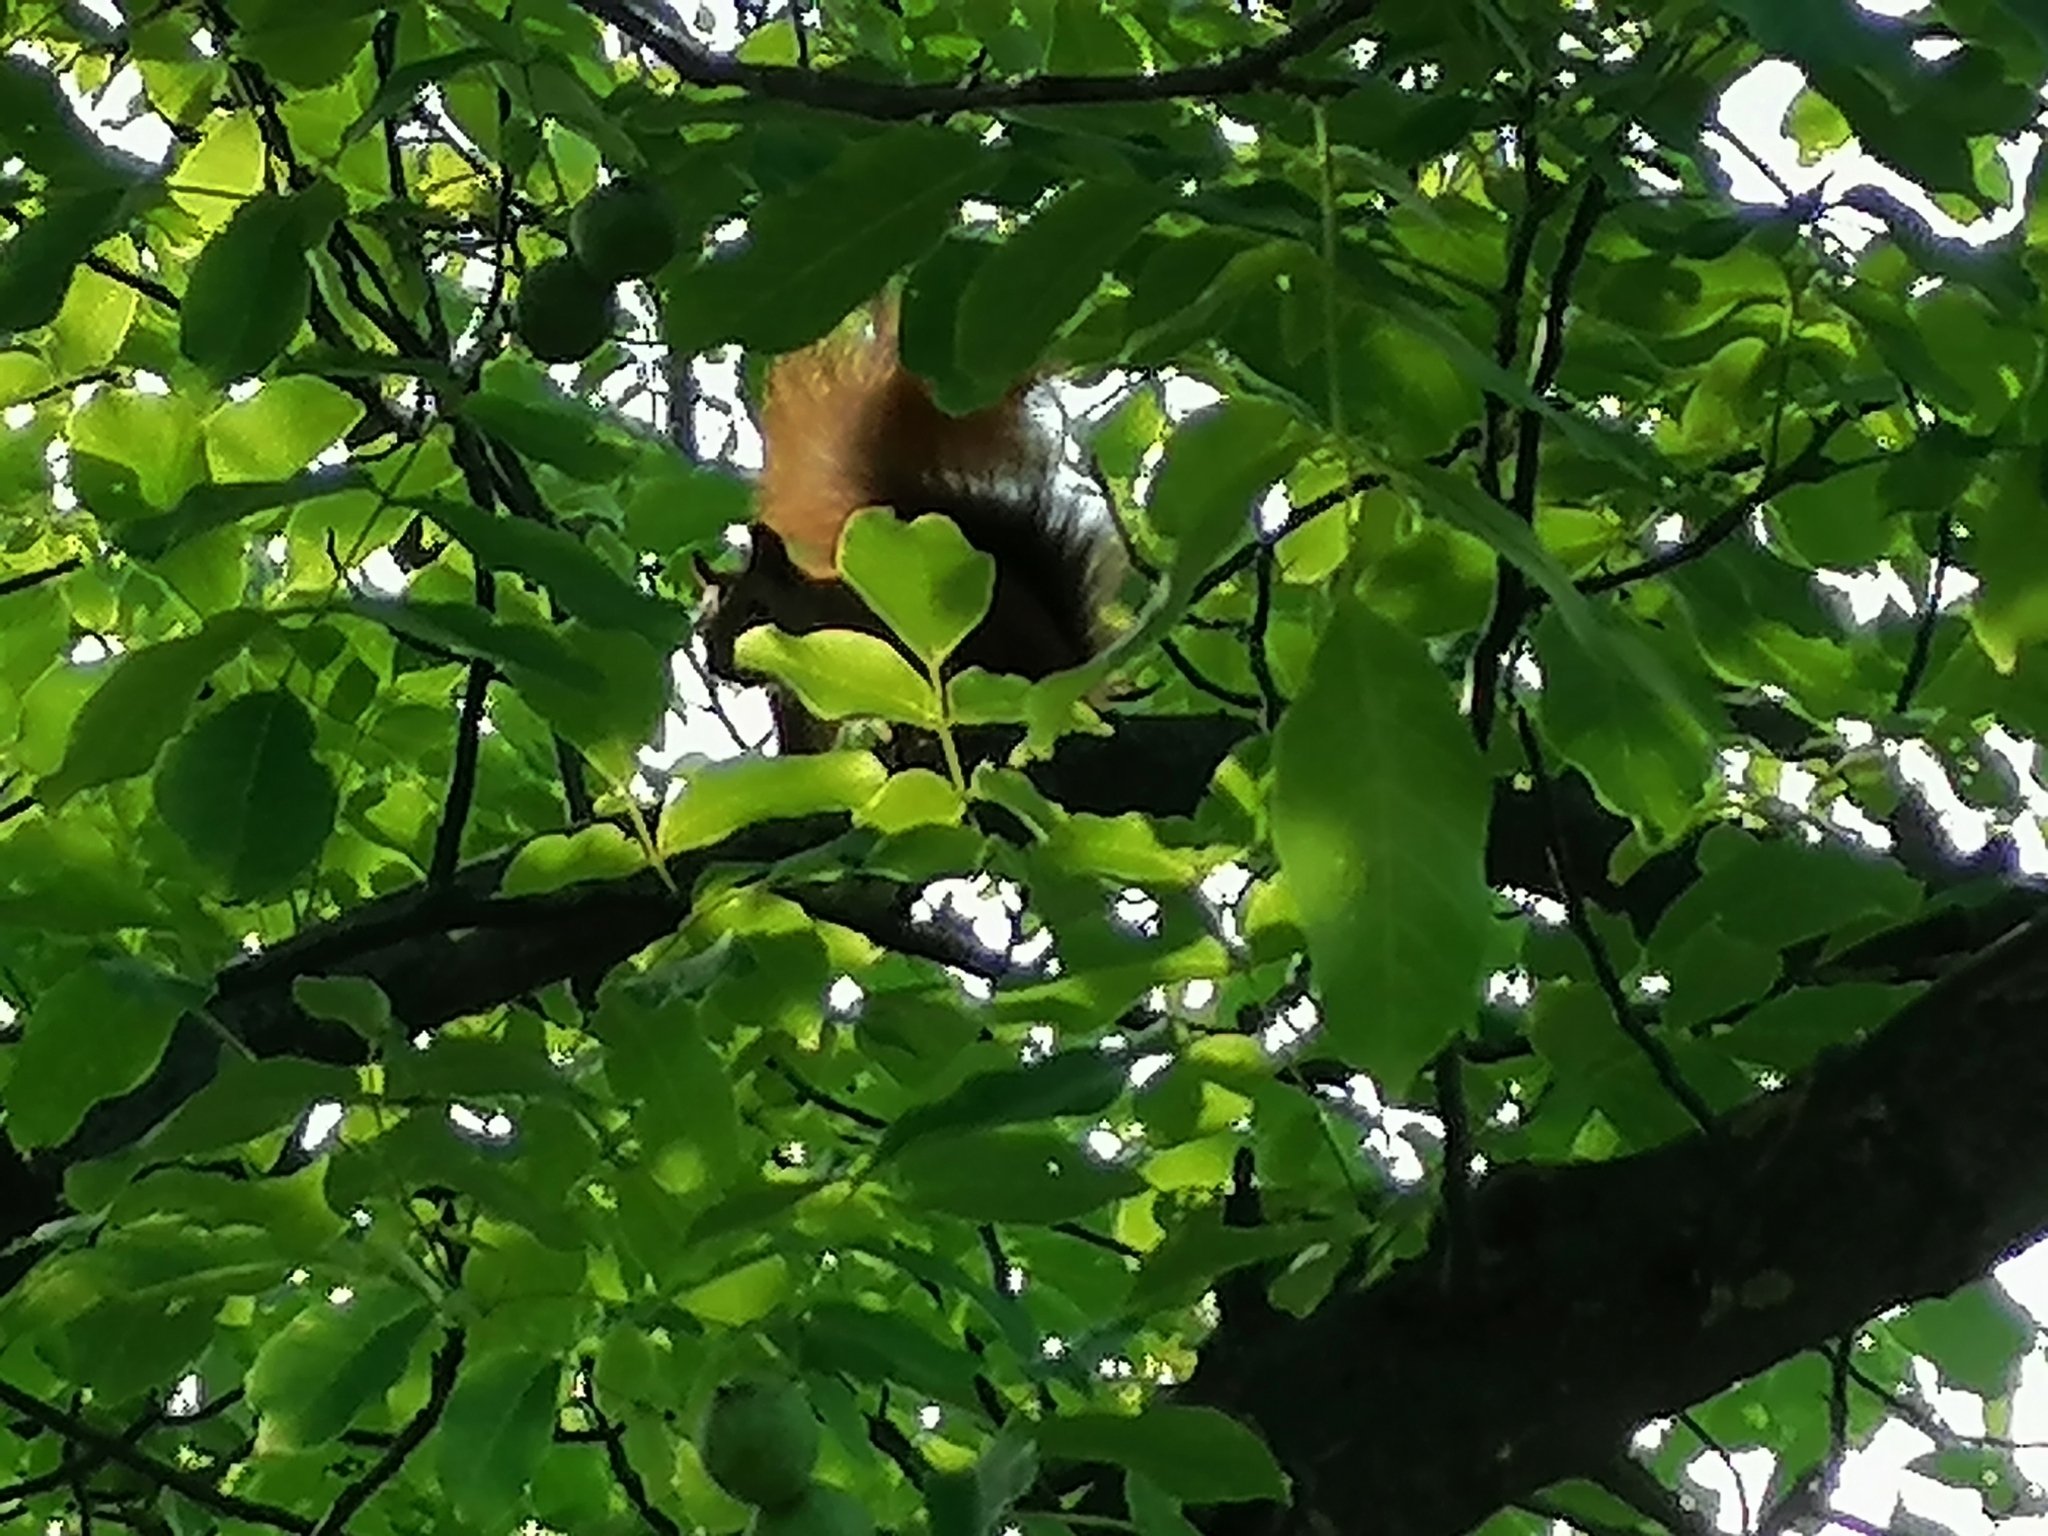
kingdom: Animalia
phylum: Chordata
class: Mammalia
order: Rodentia
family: Sciuridae
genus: Sciurus
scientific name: Sciurus vulgaris
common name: Eurasian red squirrel
